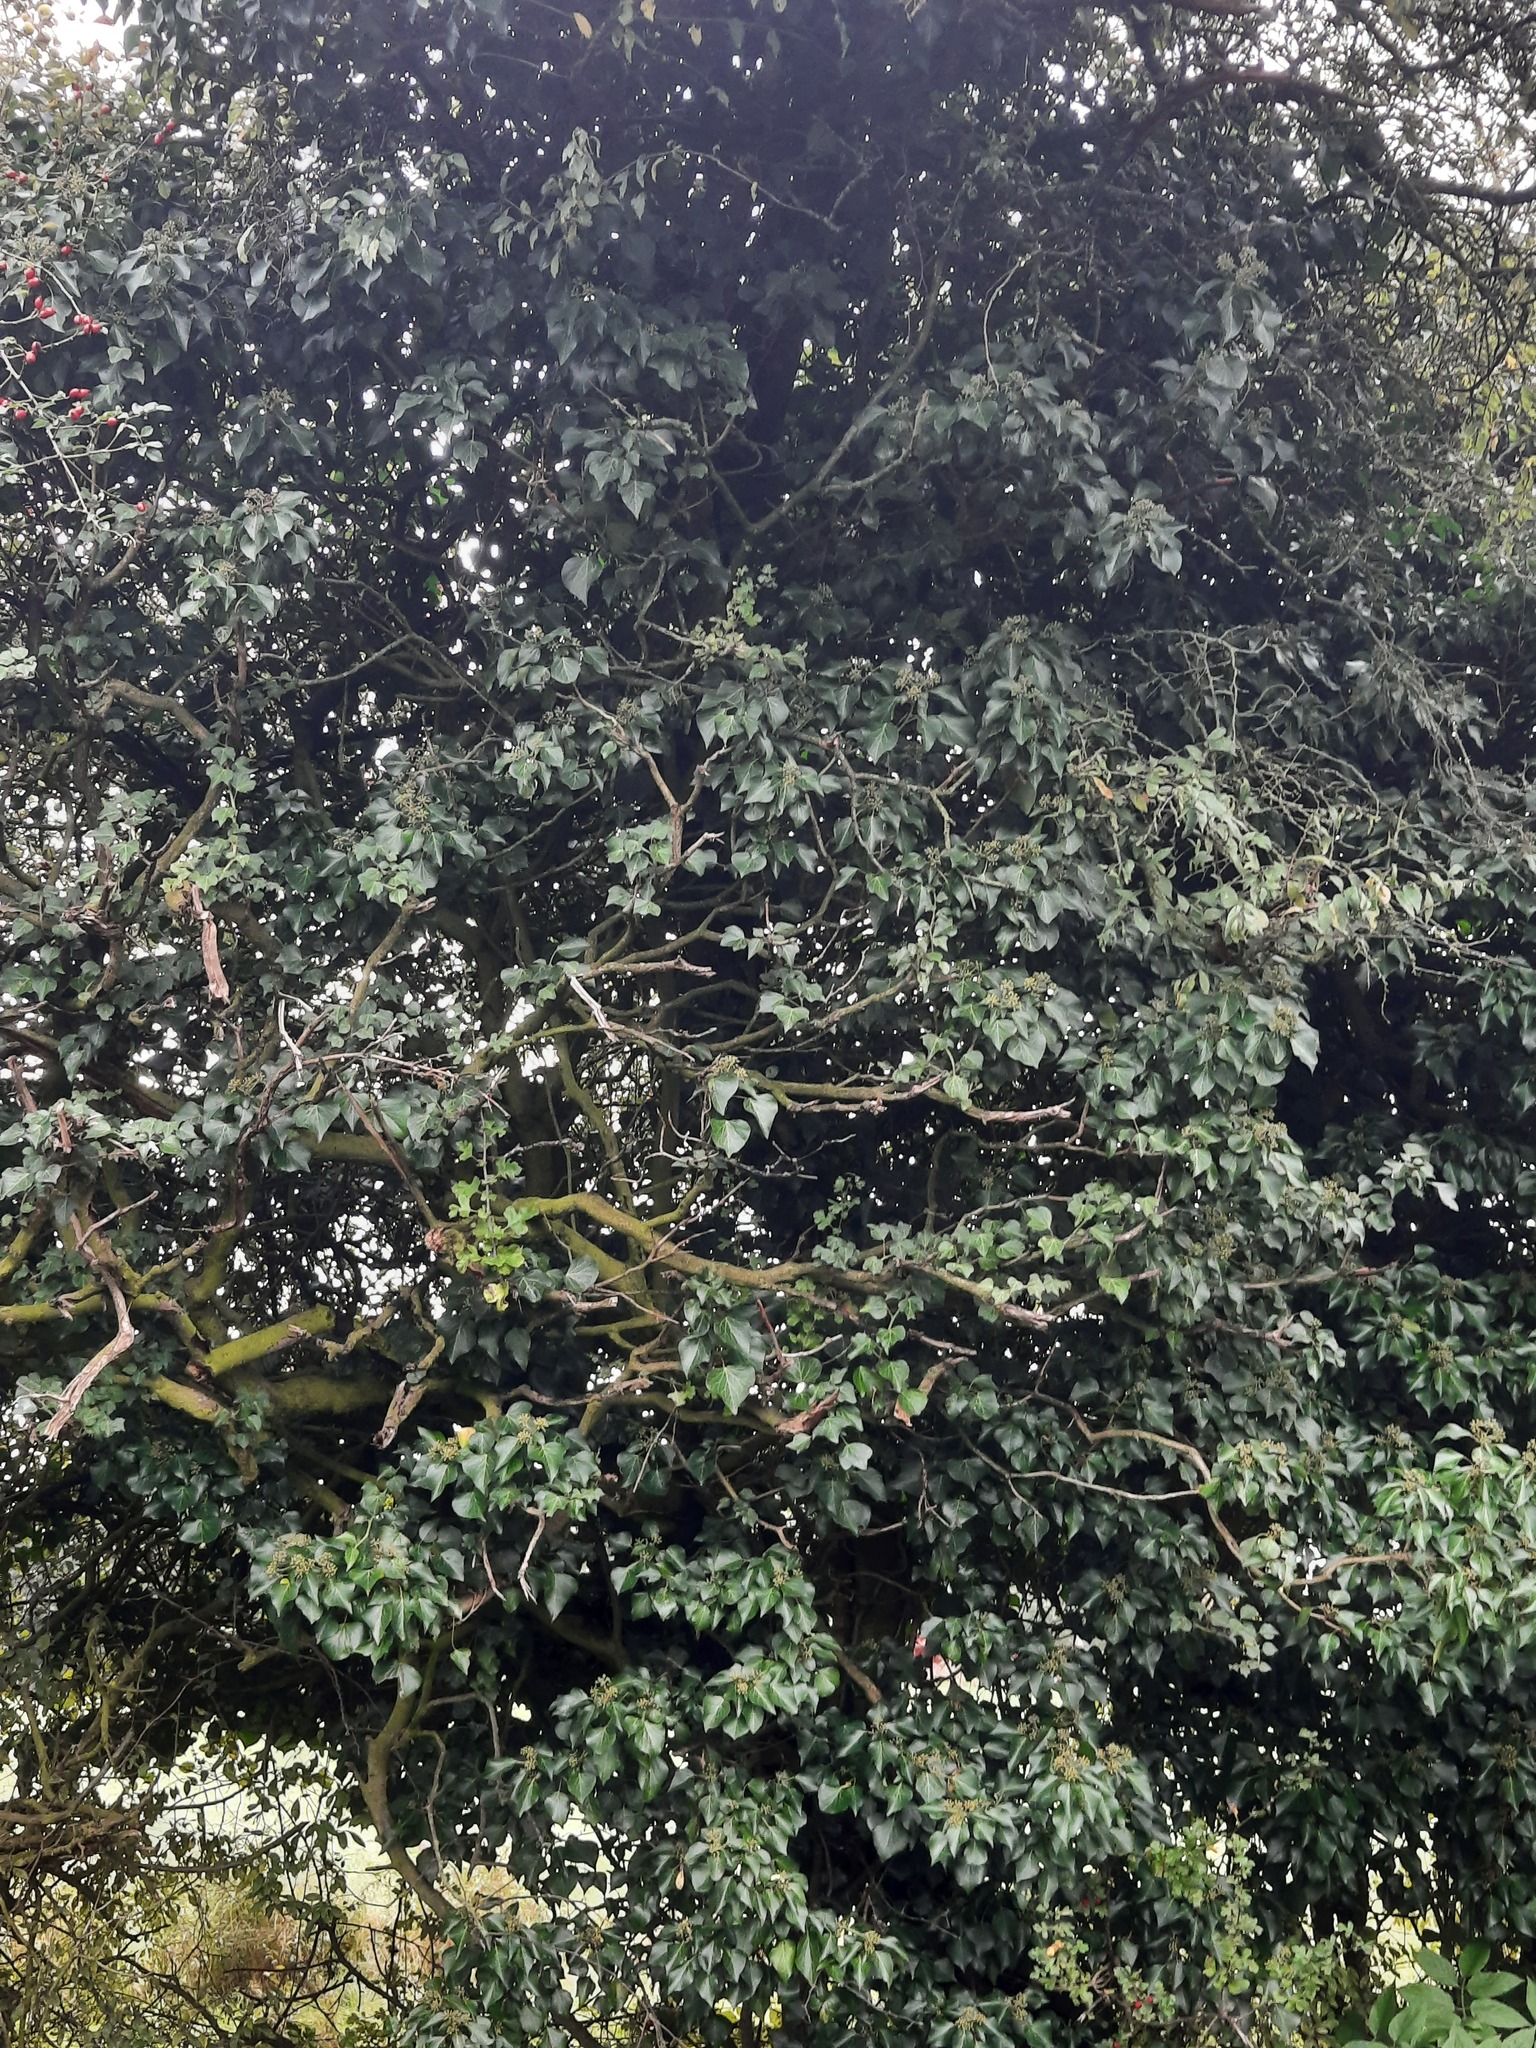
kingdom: Plantae
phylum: Tracheophyta
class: Magnoliopsida
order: Apiales
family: Araliaceae
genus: Hedera
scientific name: Hedera helix
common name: Ivy
